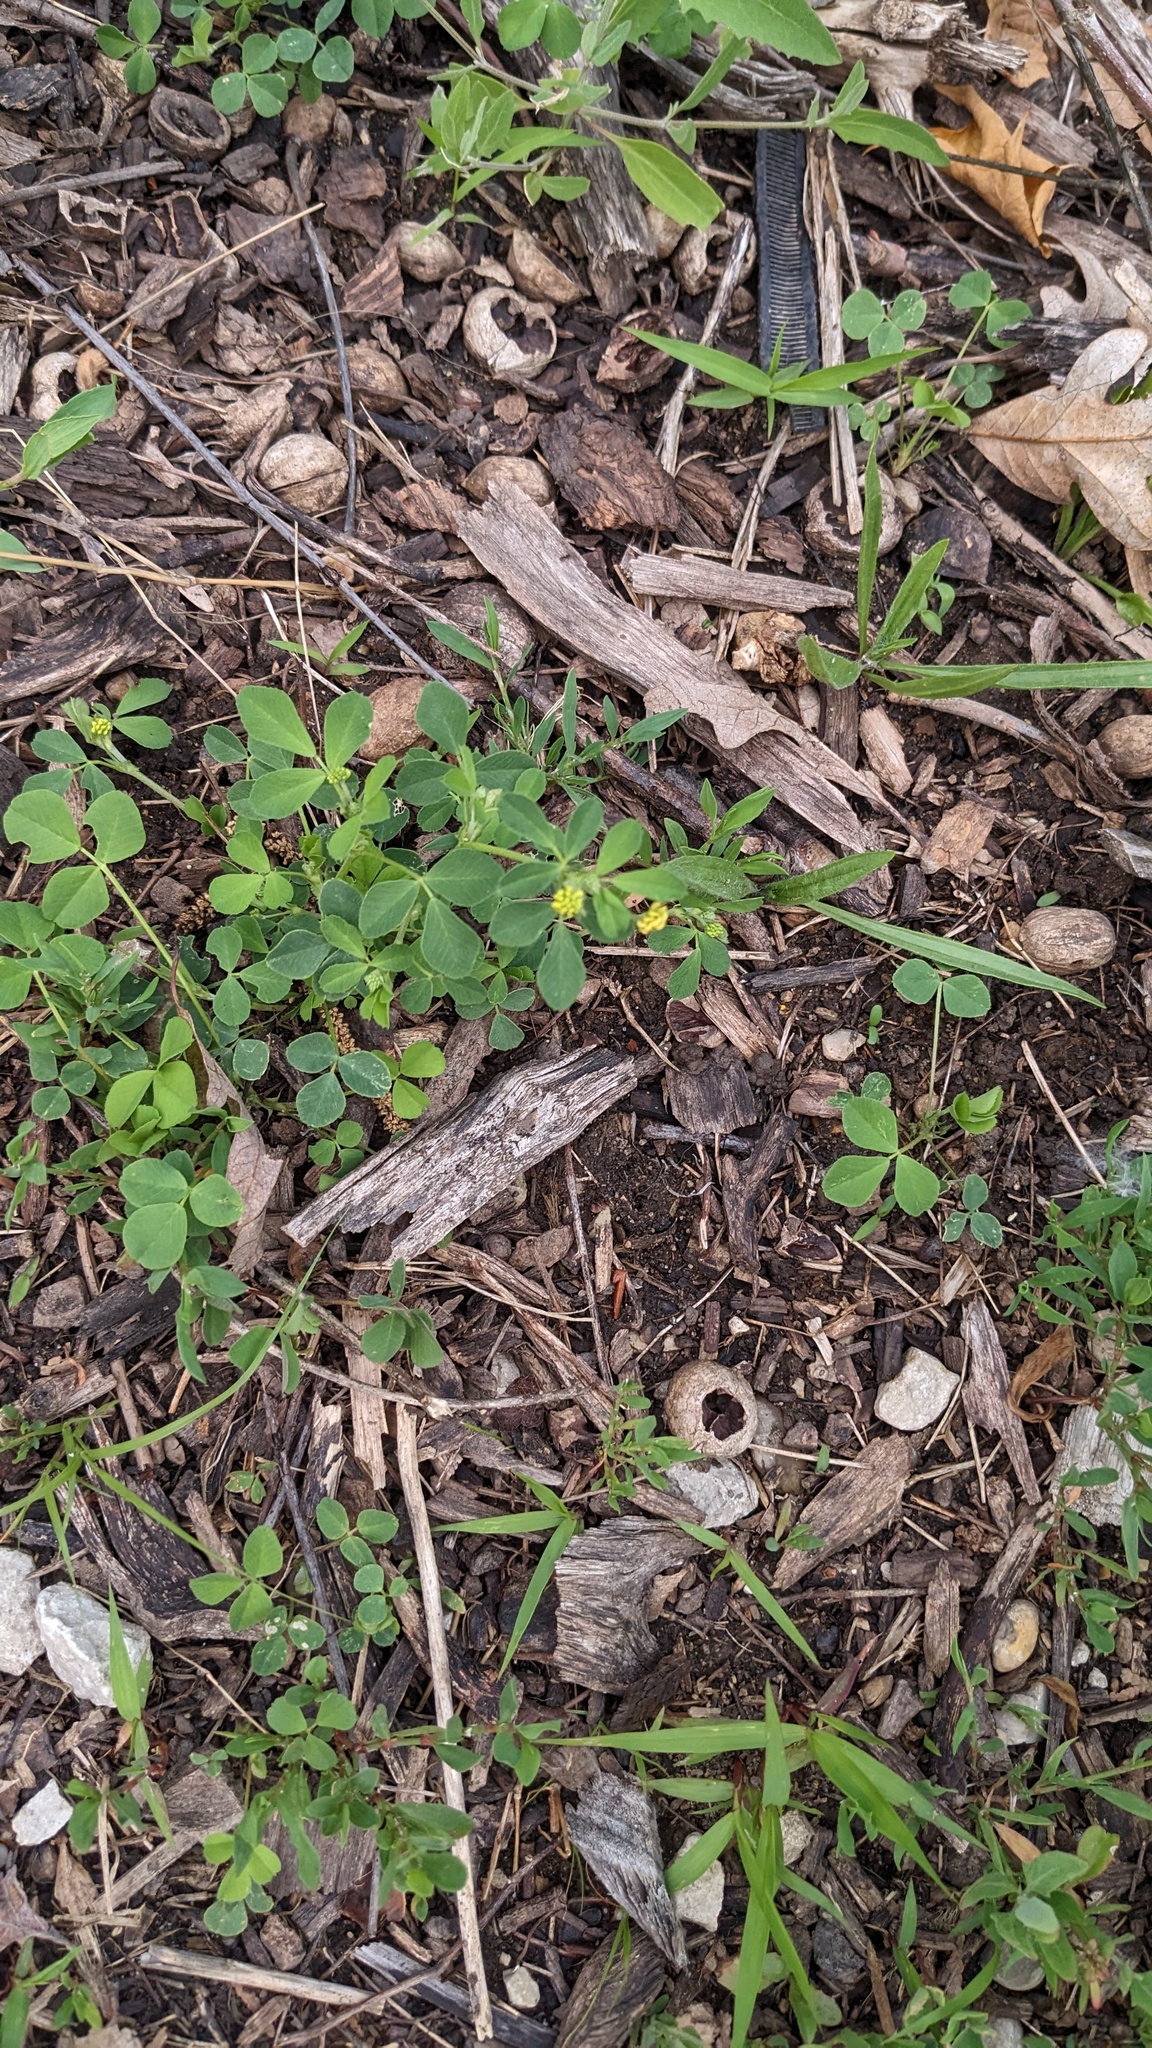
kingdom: Plantae
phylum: Tracheophyta
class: Magnoliopsida
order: Fabales
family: Fabaceae
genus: Medicago
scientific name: Medicago lupulina
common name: Black medick
